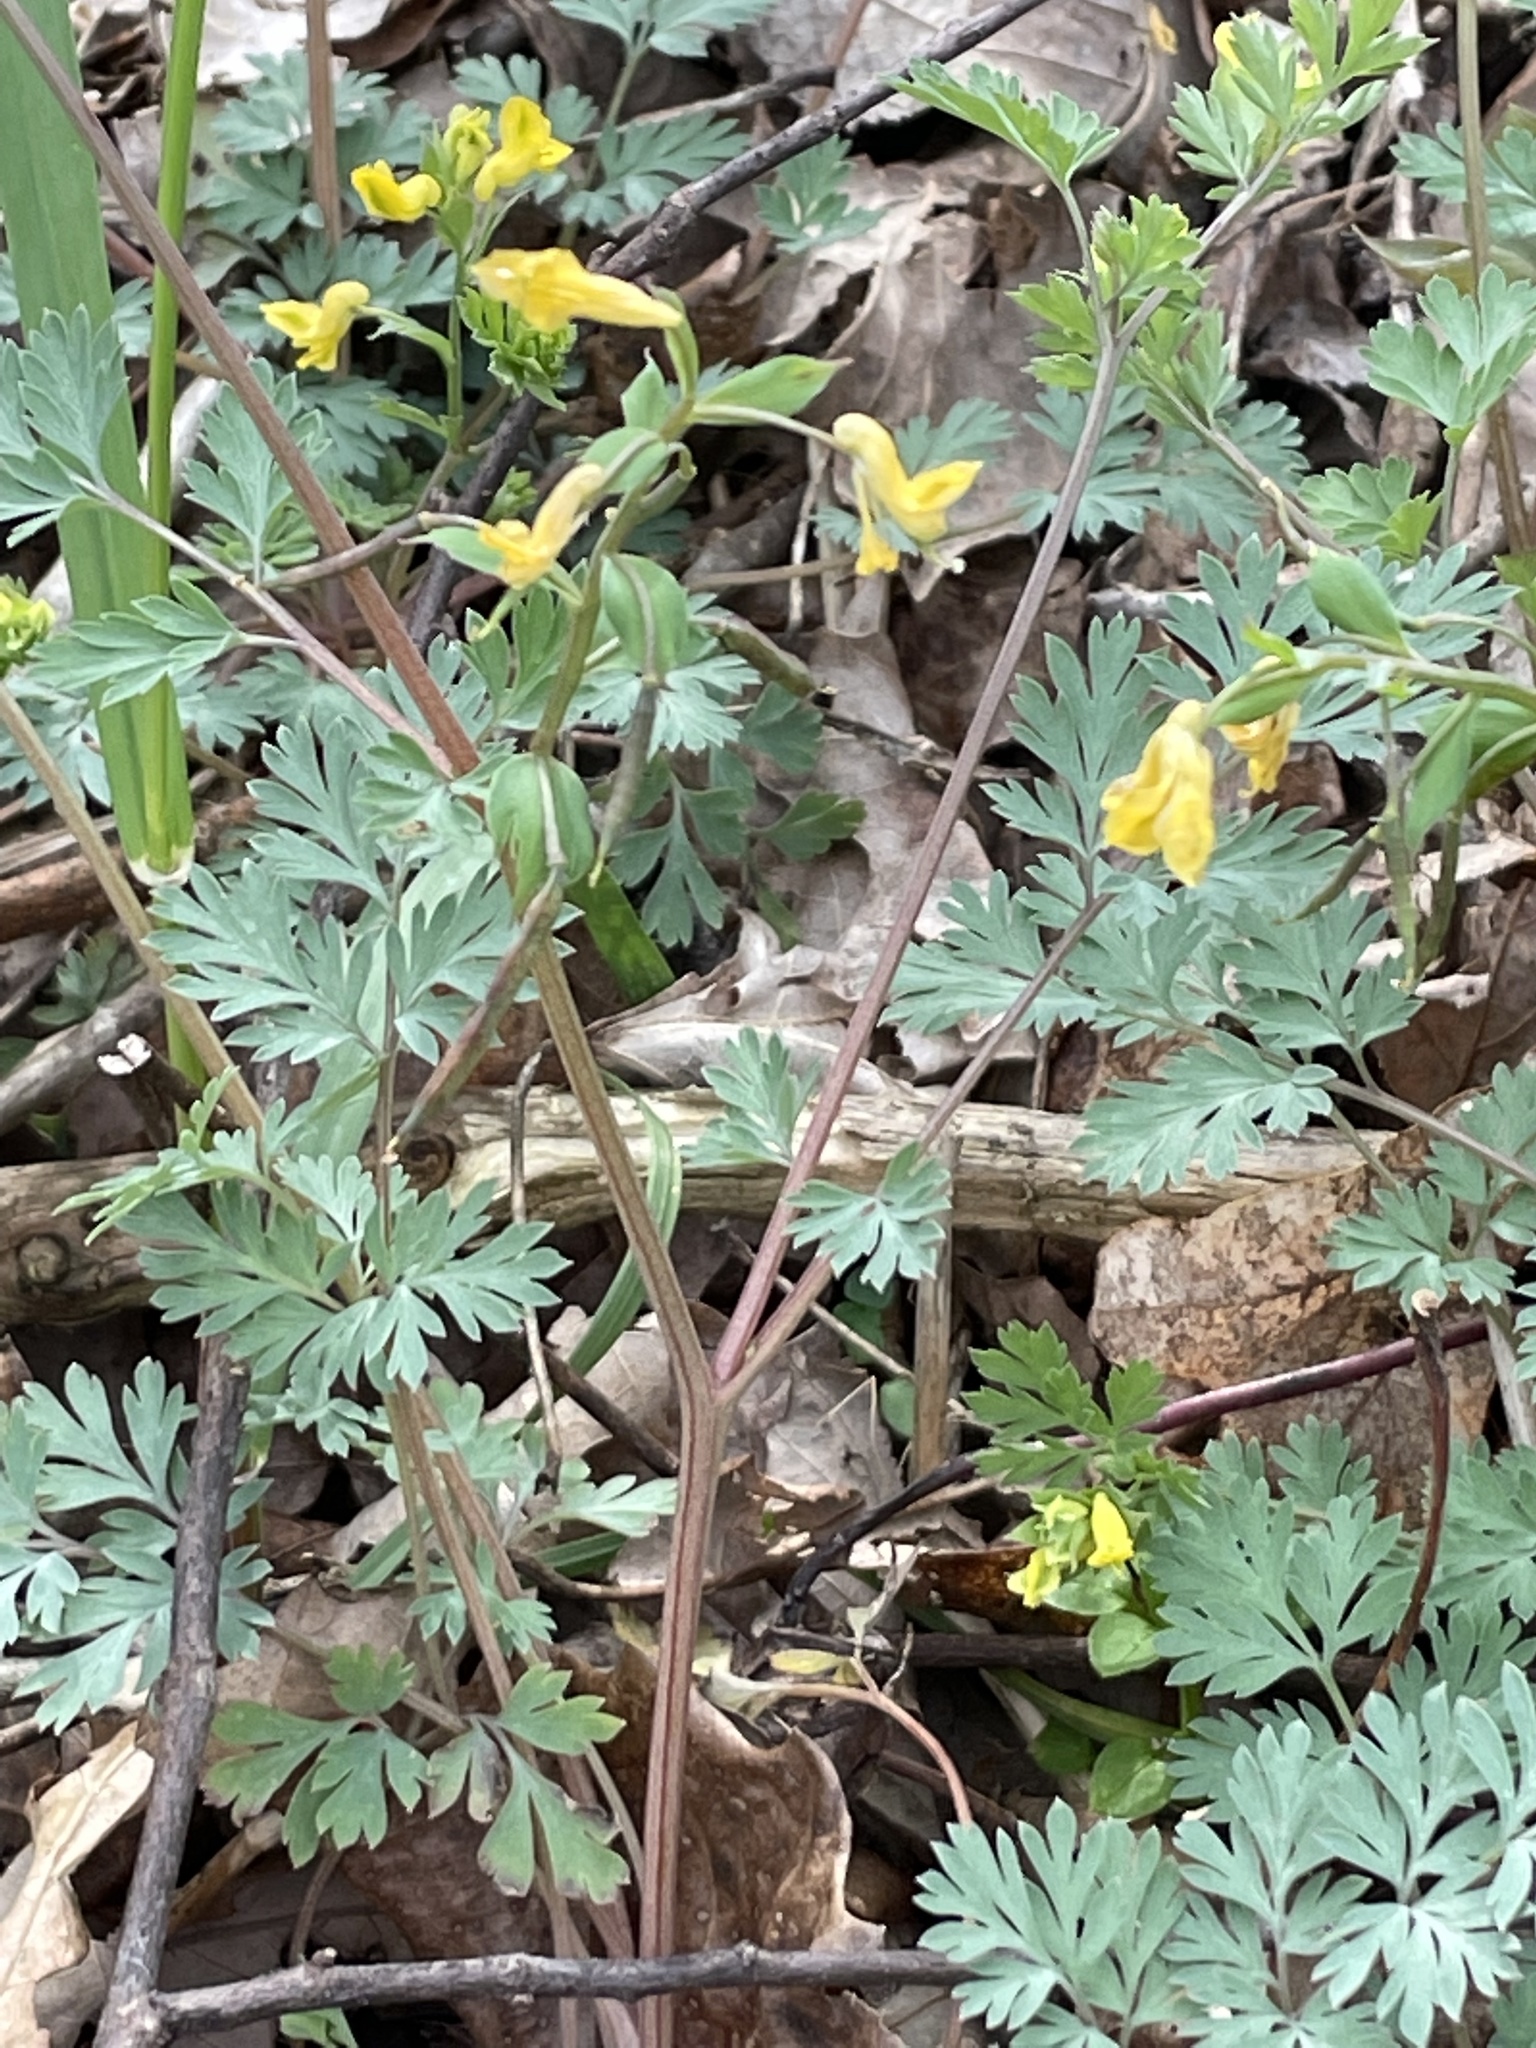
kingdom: Plantae
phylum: Tracheophyta
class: Magnoliopsida
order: Ranunculales
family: Papaveraceae
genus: Corydalis
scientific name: Corydalis flavula
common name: Yellow corydalis
